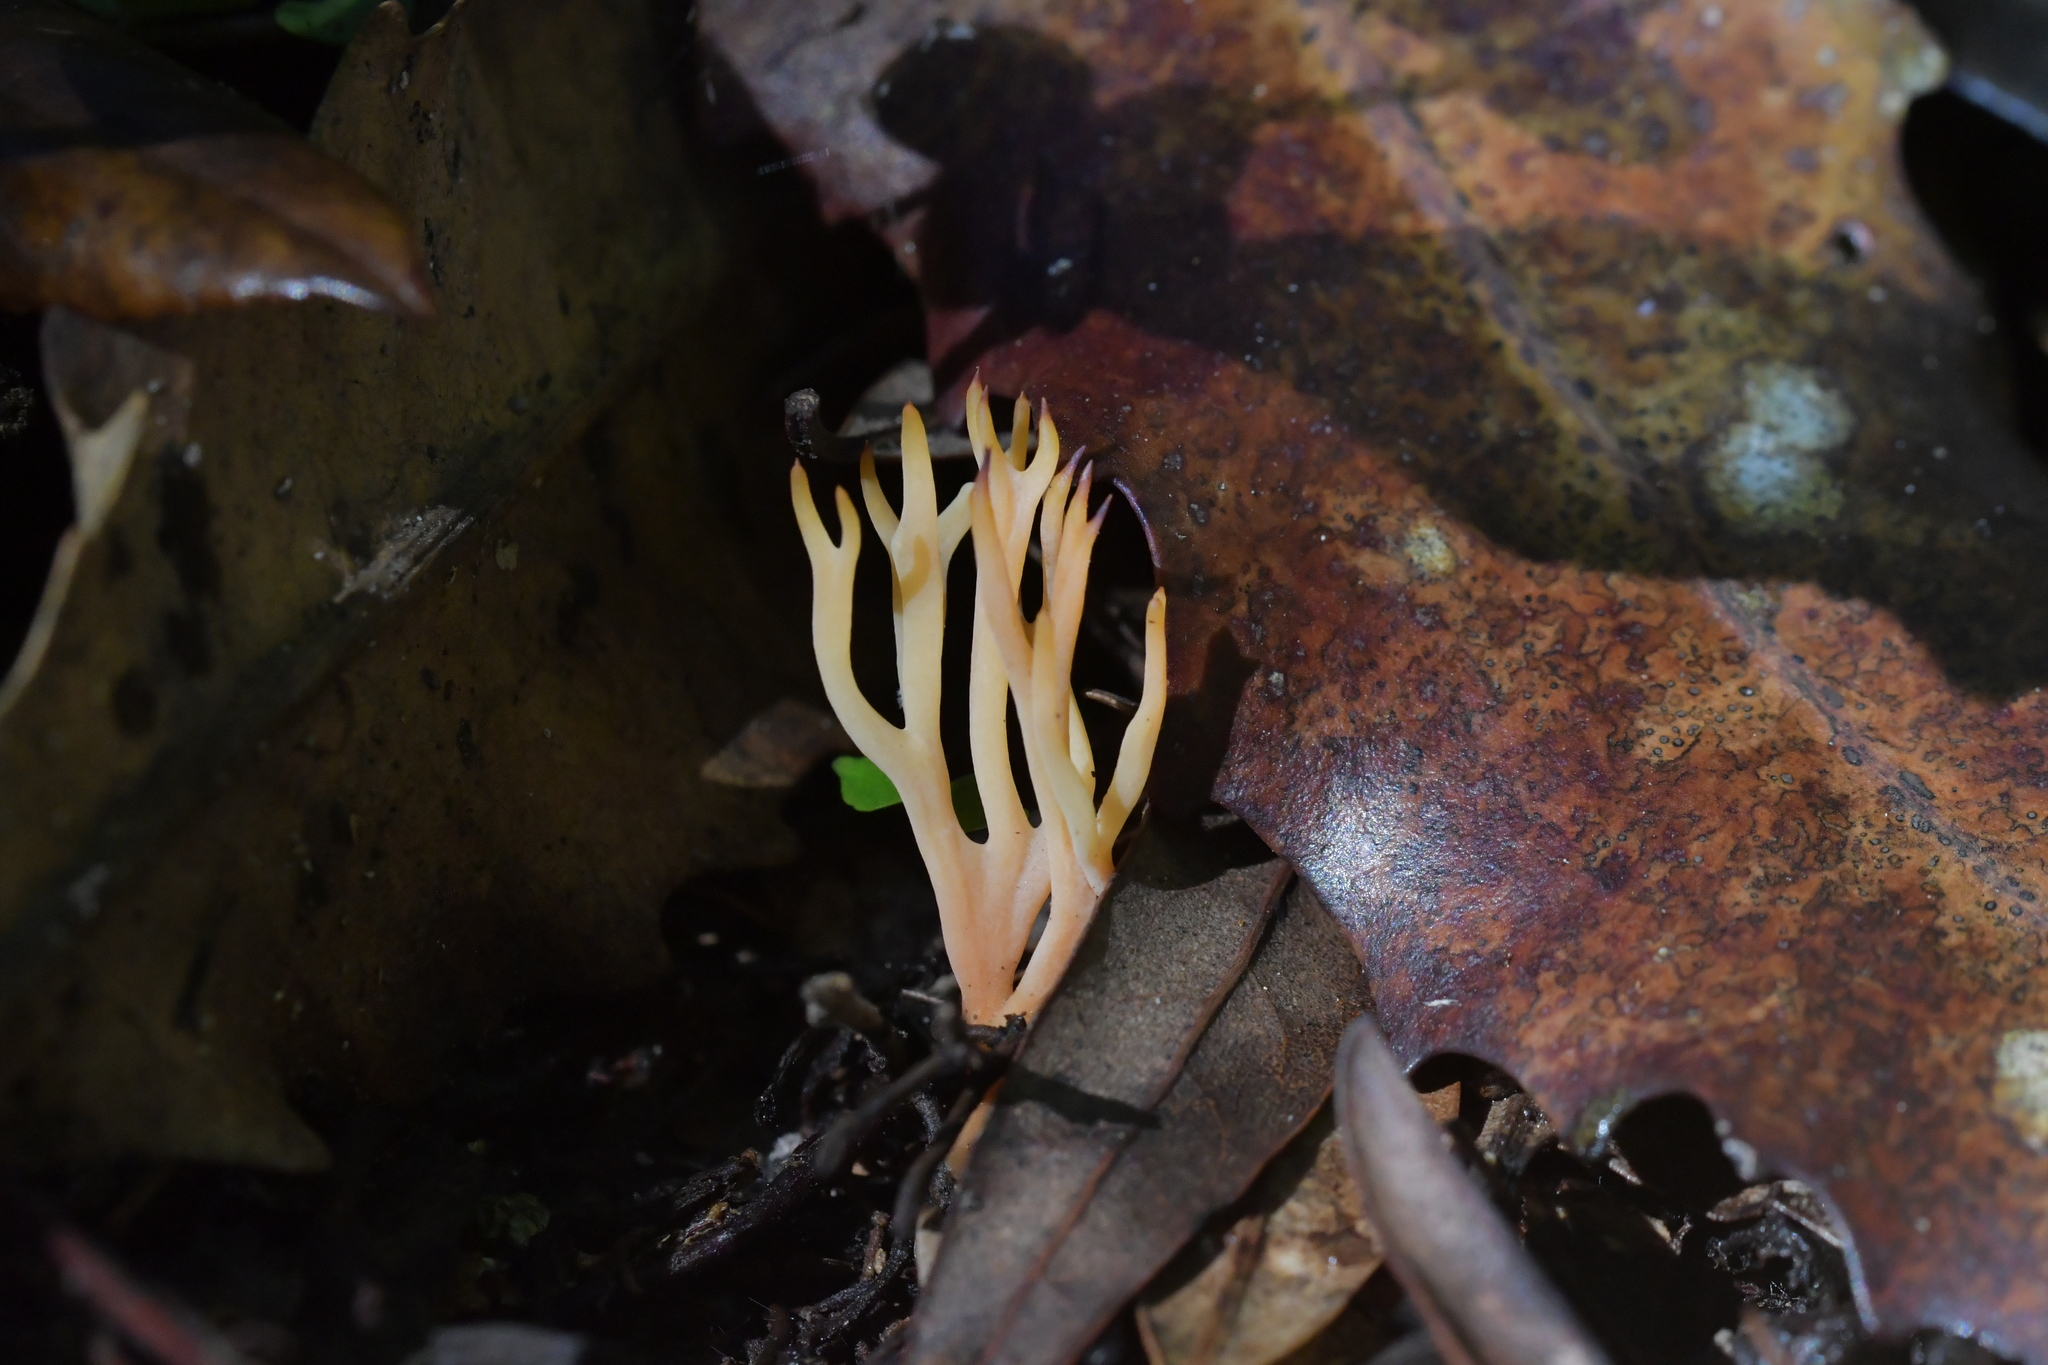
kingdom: Fungi
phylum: Basidiomycota
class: Agaricomycetes
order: Agaricales
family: Clavariaceae
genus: Ramariopsis
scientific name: Ramariopsis bicolor
